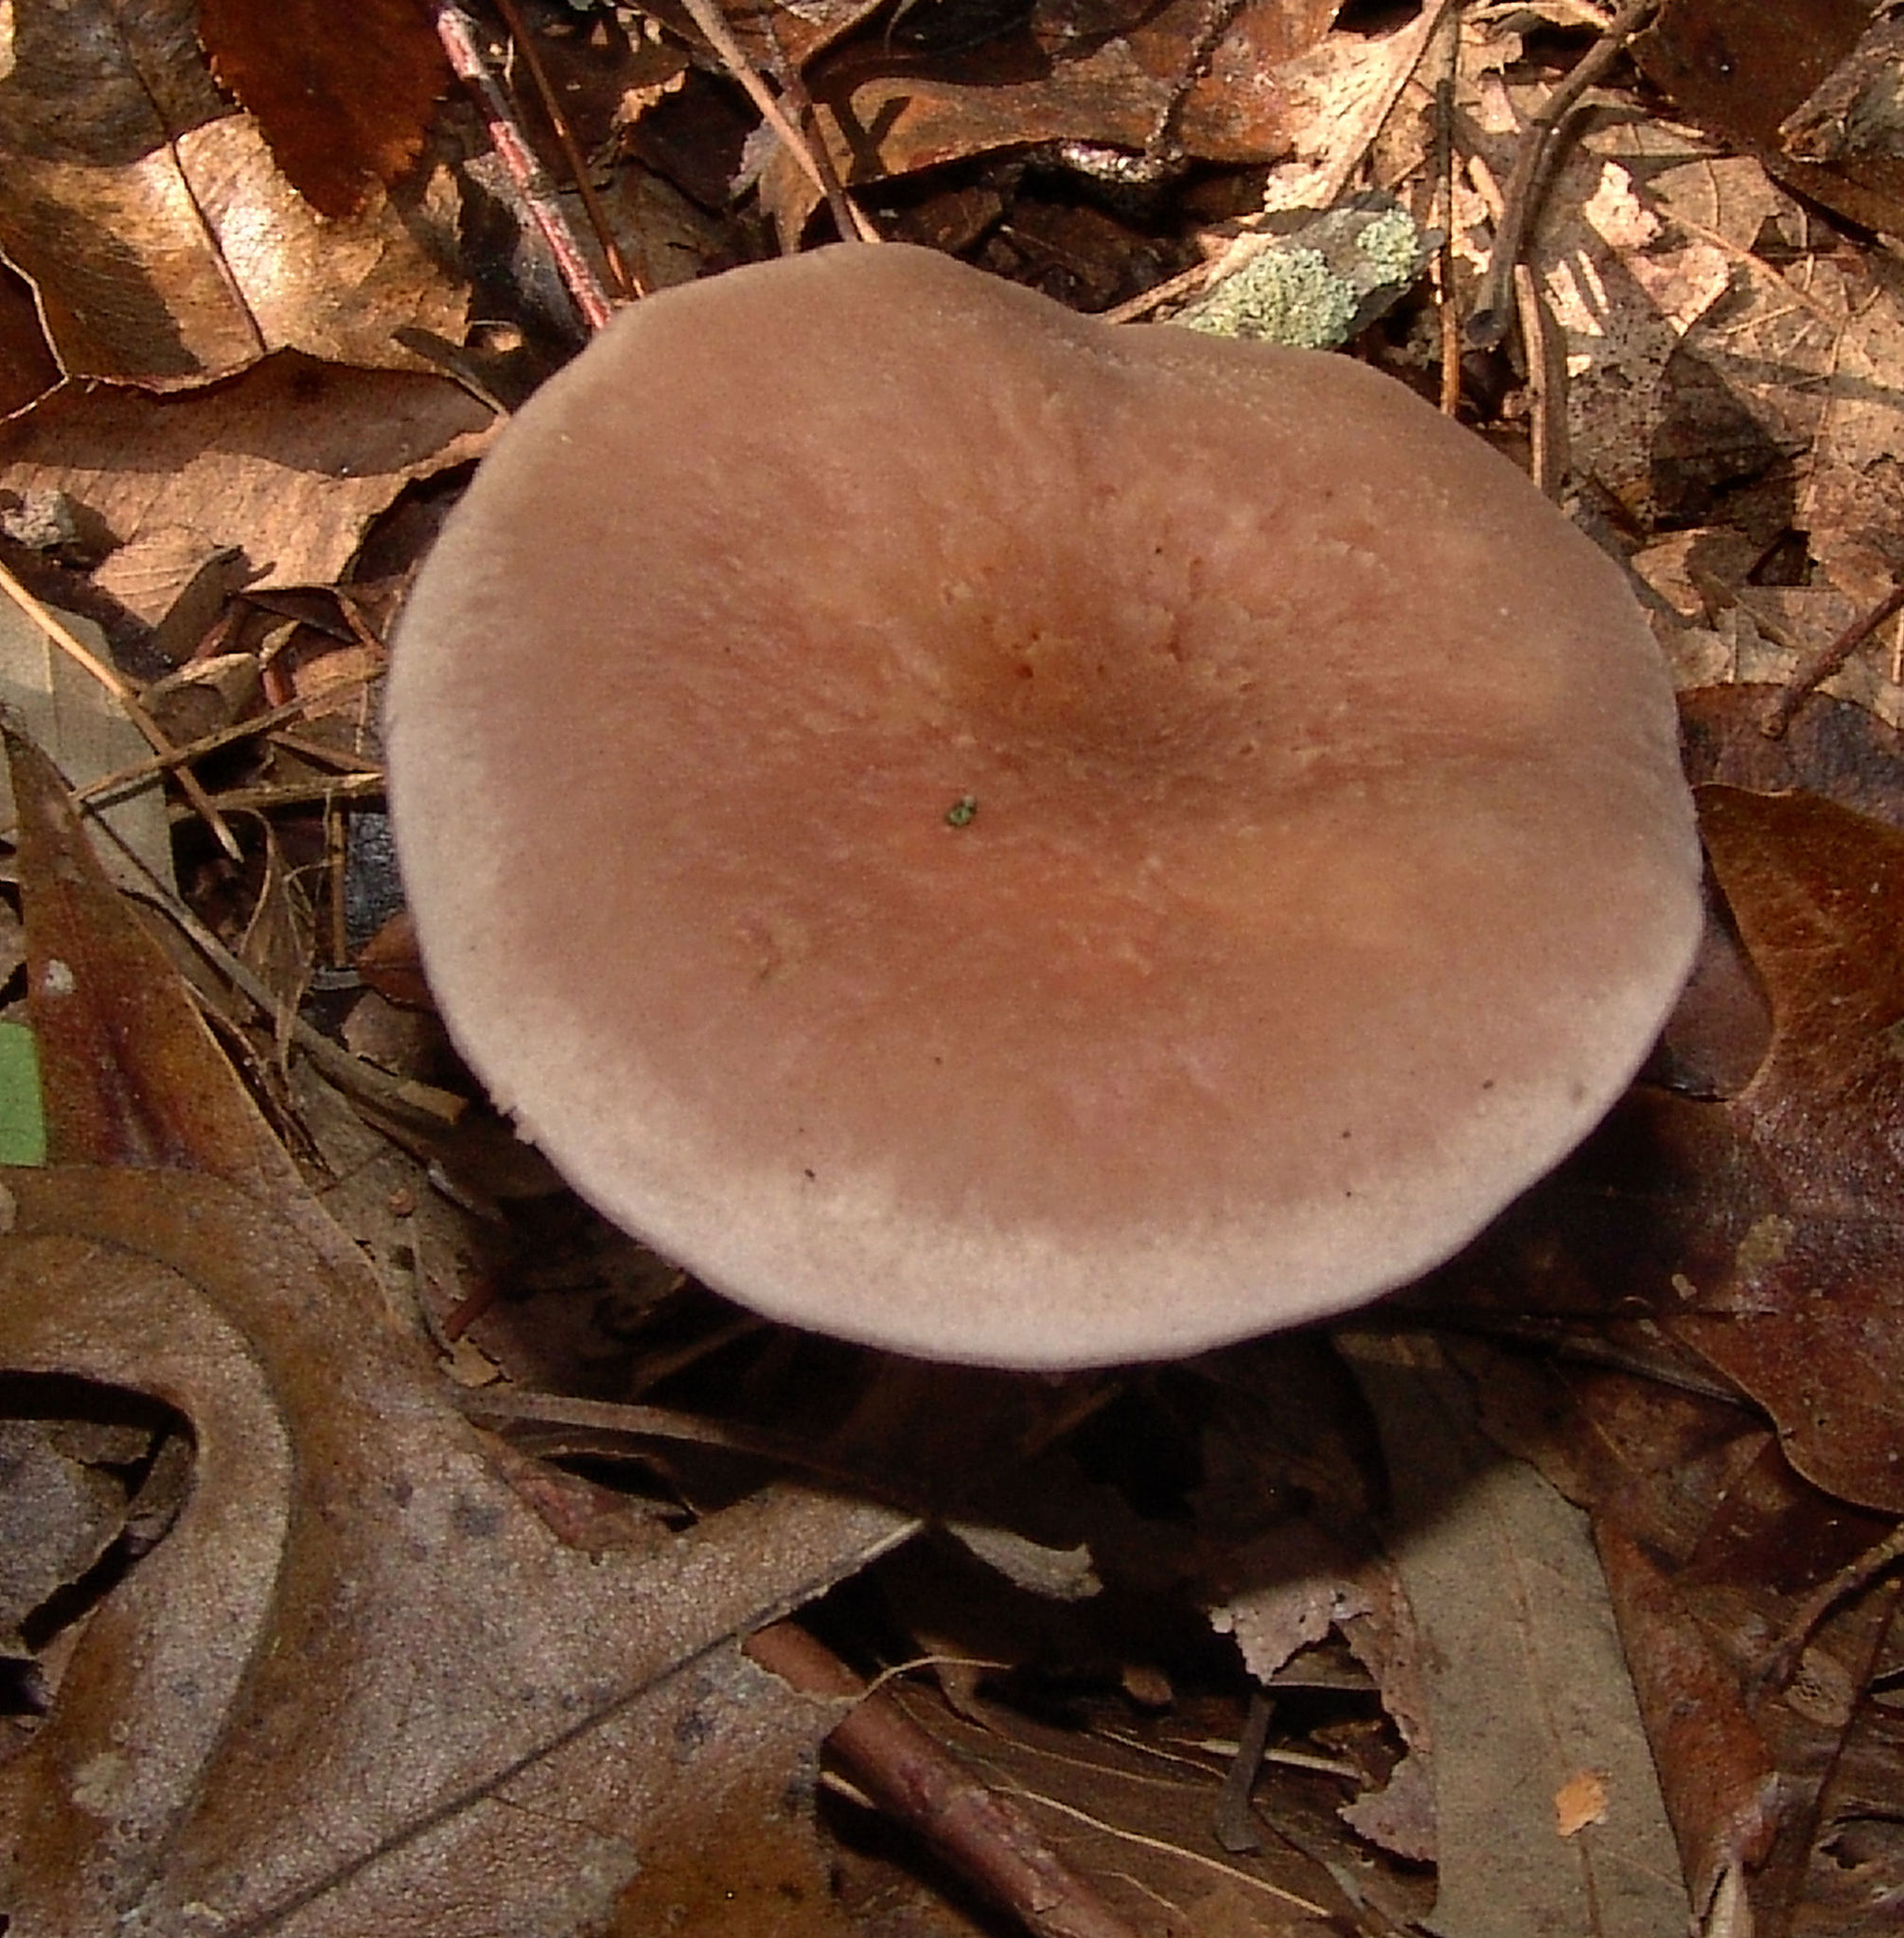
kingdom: Fungi
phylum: Basidiomycota
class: Agaricomycetes
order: Agaricales
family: Hydnangiaceae
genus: Laccaria
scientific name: Laccaria ochropurpurea
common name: Purple laccaria
